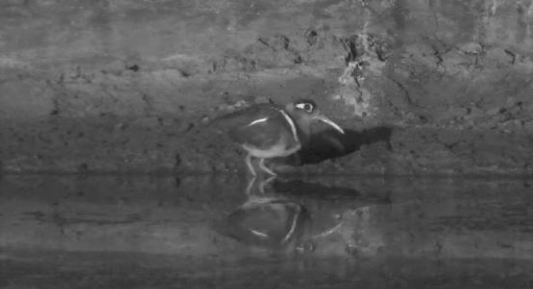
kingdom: Animalia
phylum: Chordata
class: Aves
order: Charadriiformes
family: Rostratulidae
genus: Rostratula
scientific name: Rostratula benghalensis
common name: Greater painted-snipe
